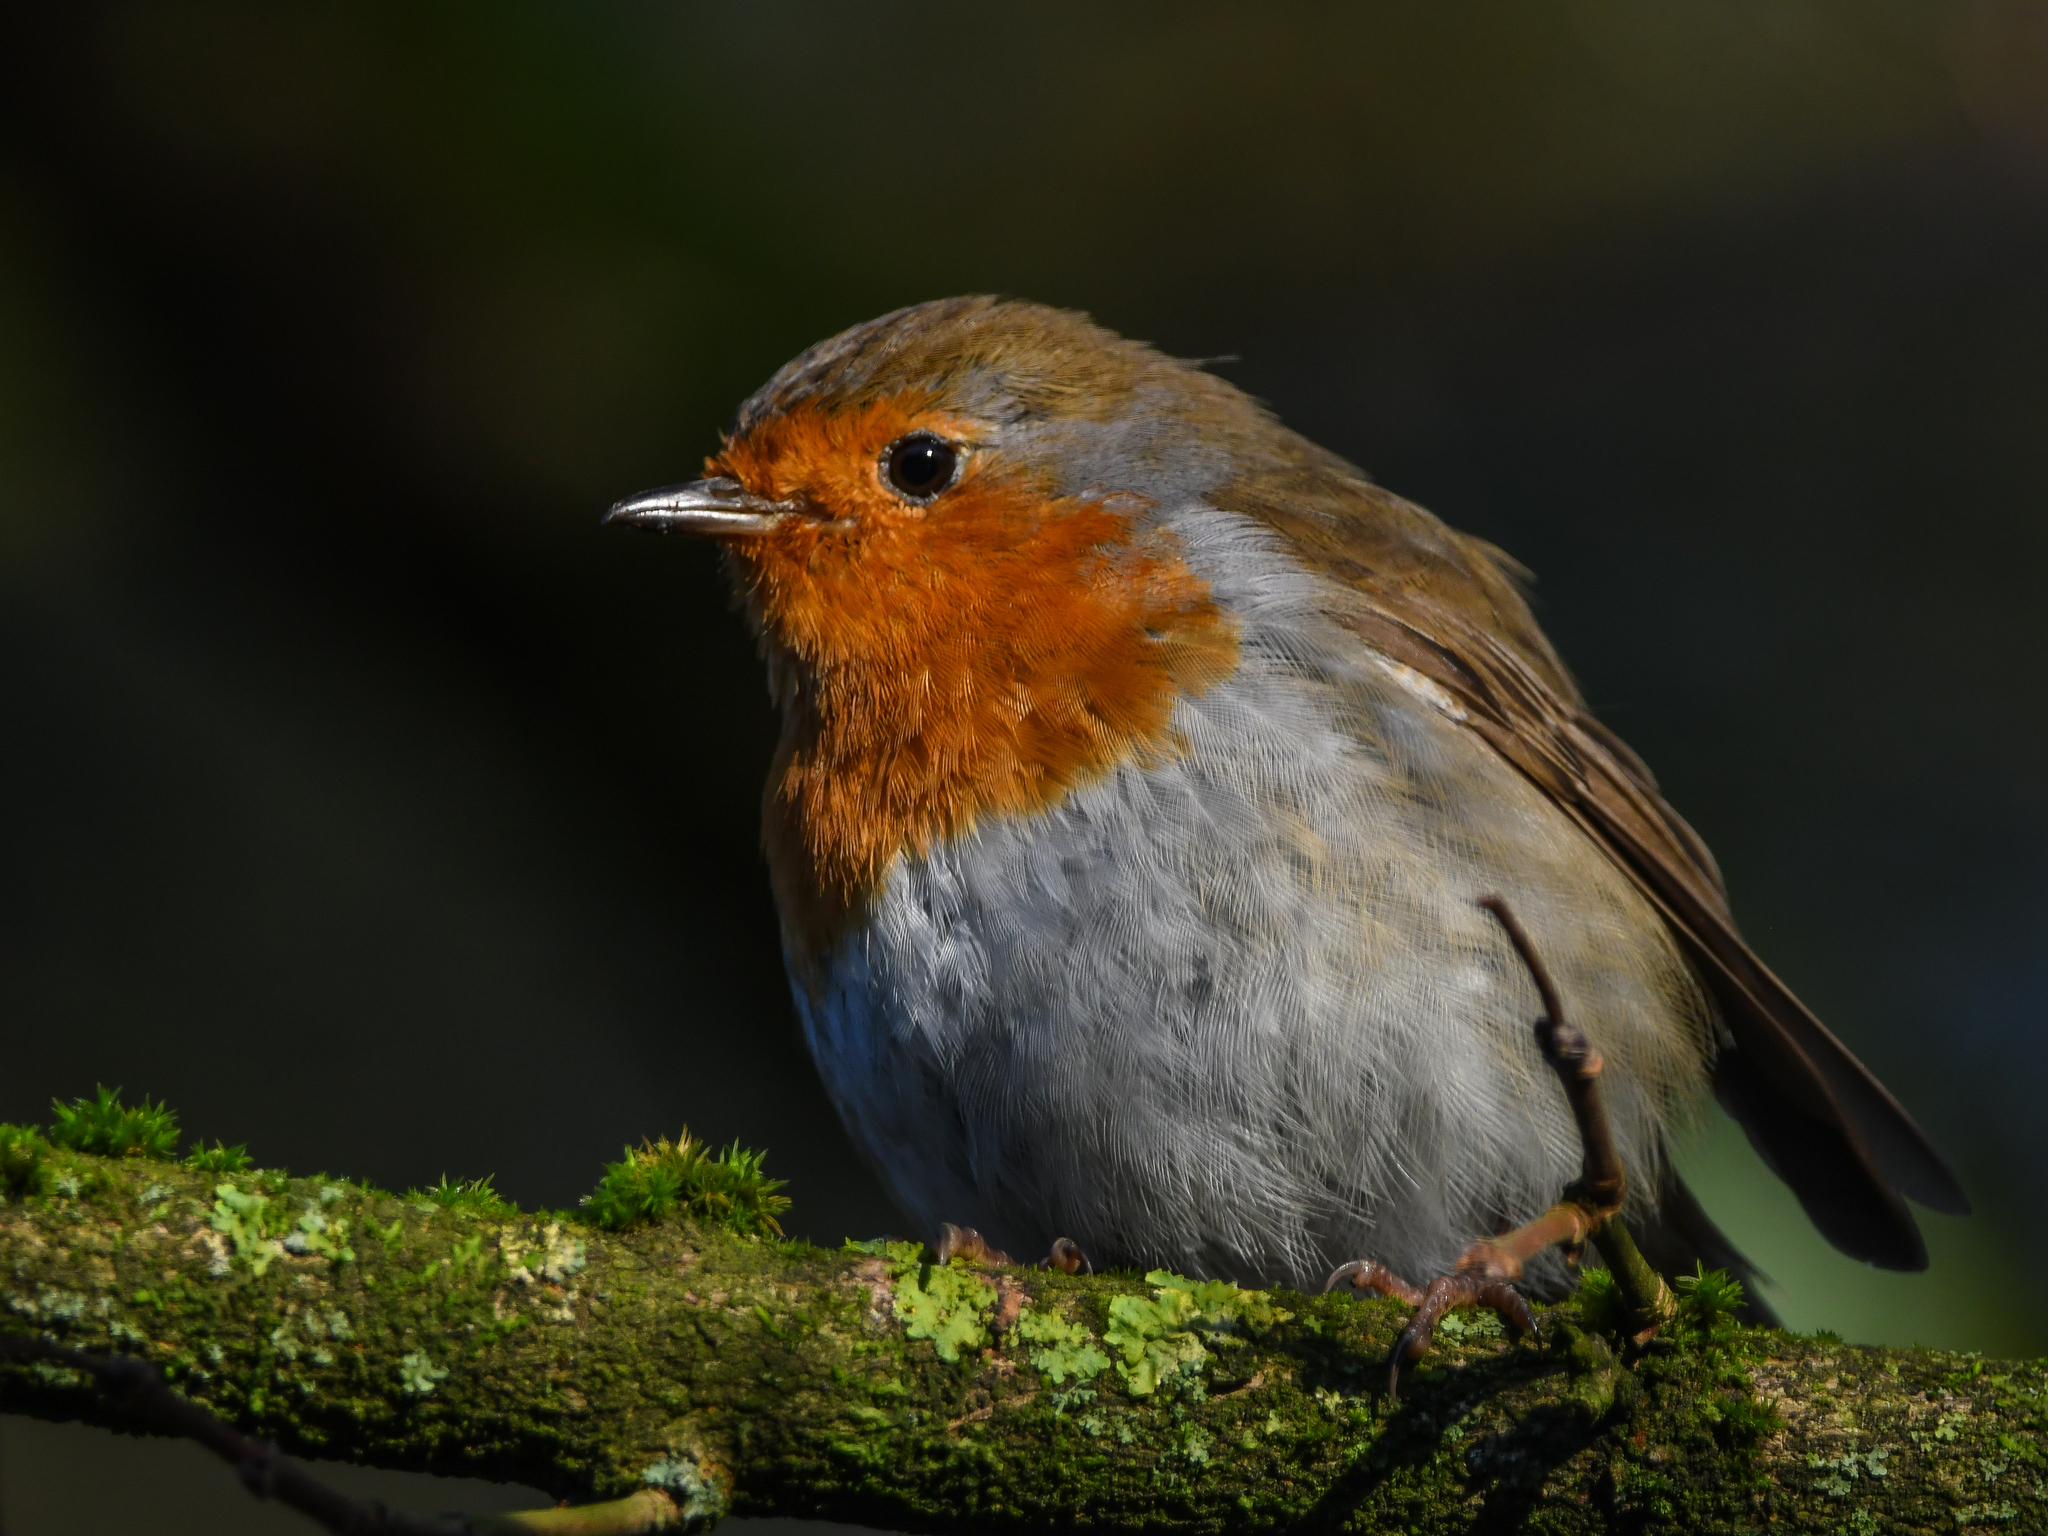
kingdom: Animalia
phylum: Chordata
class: Aves
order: Passeriformes
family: Muscicapidae
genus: Erithacus
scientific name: Erithacus rubecula
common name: European robin
